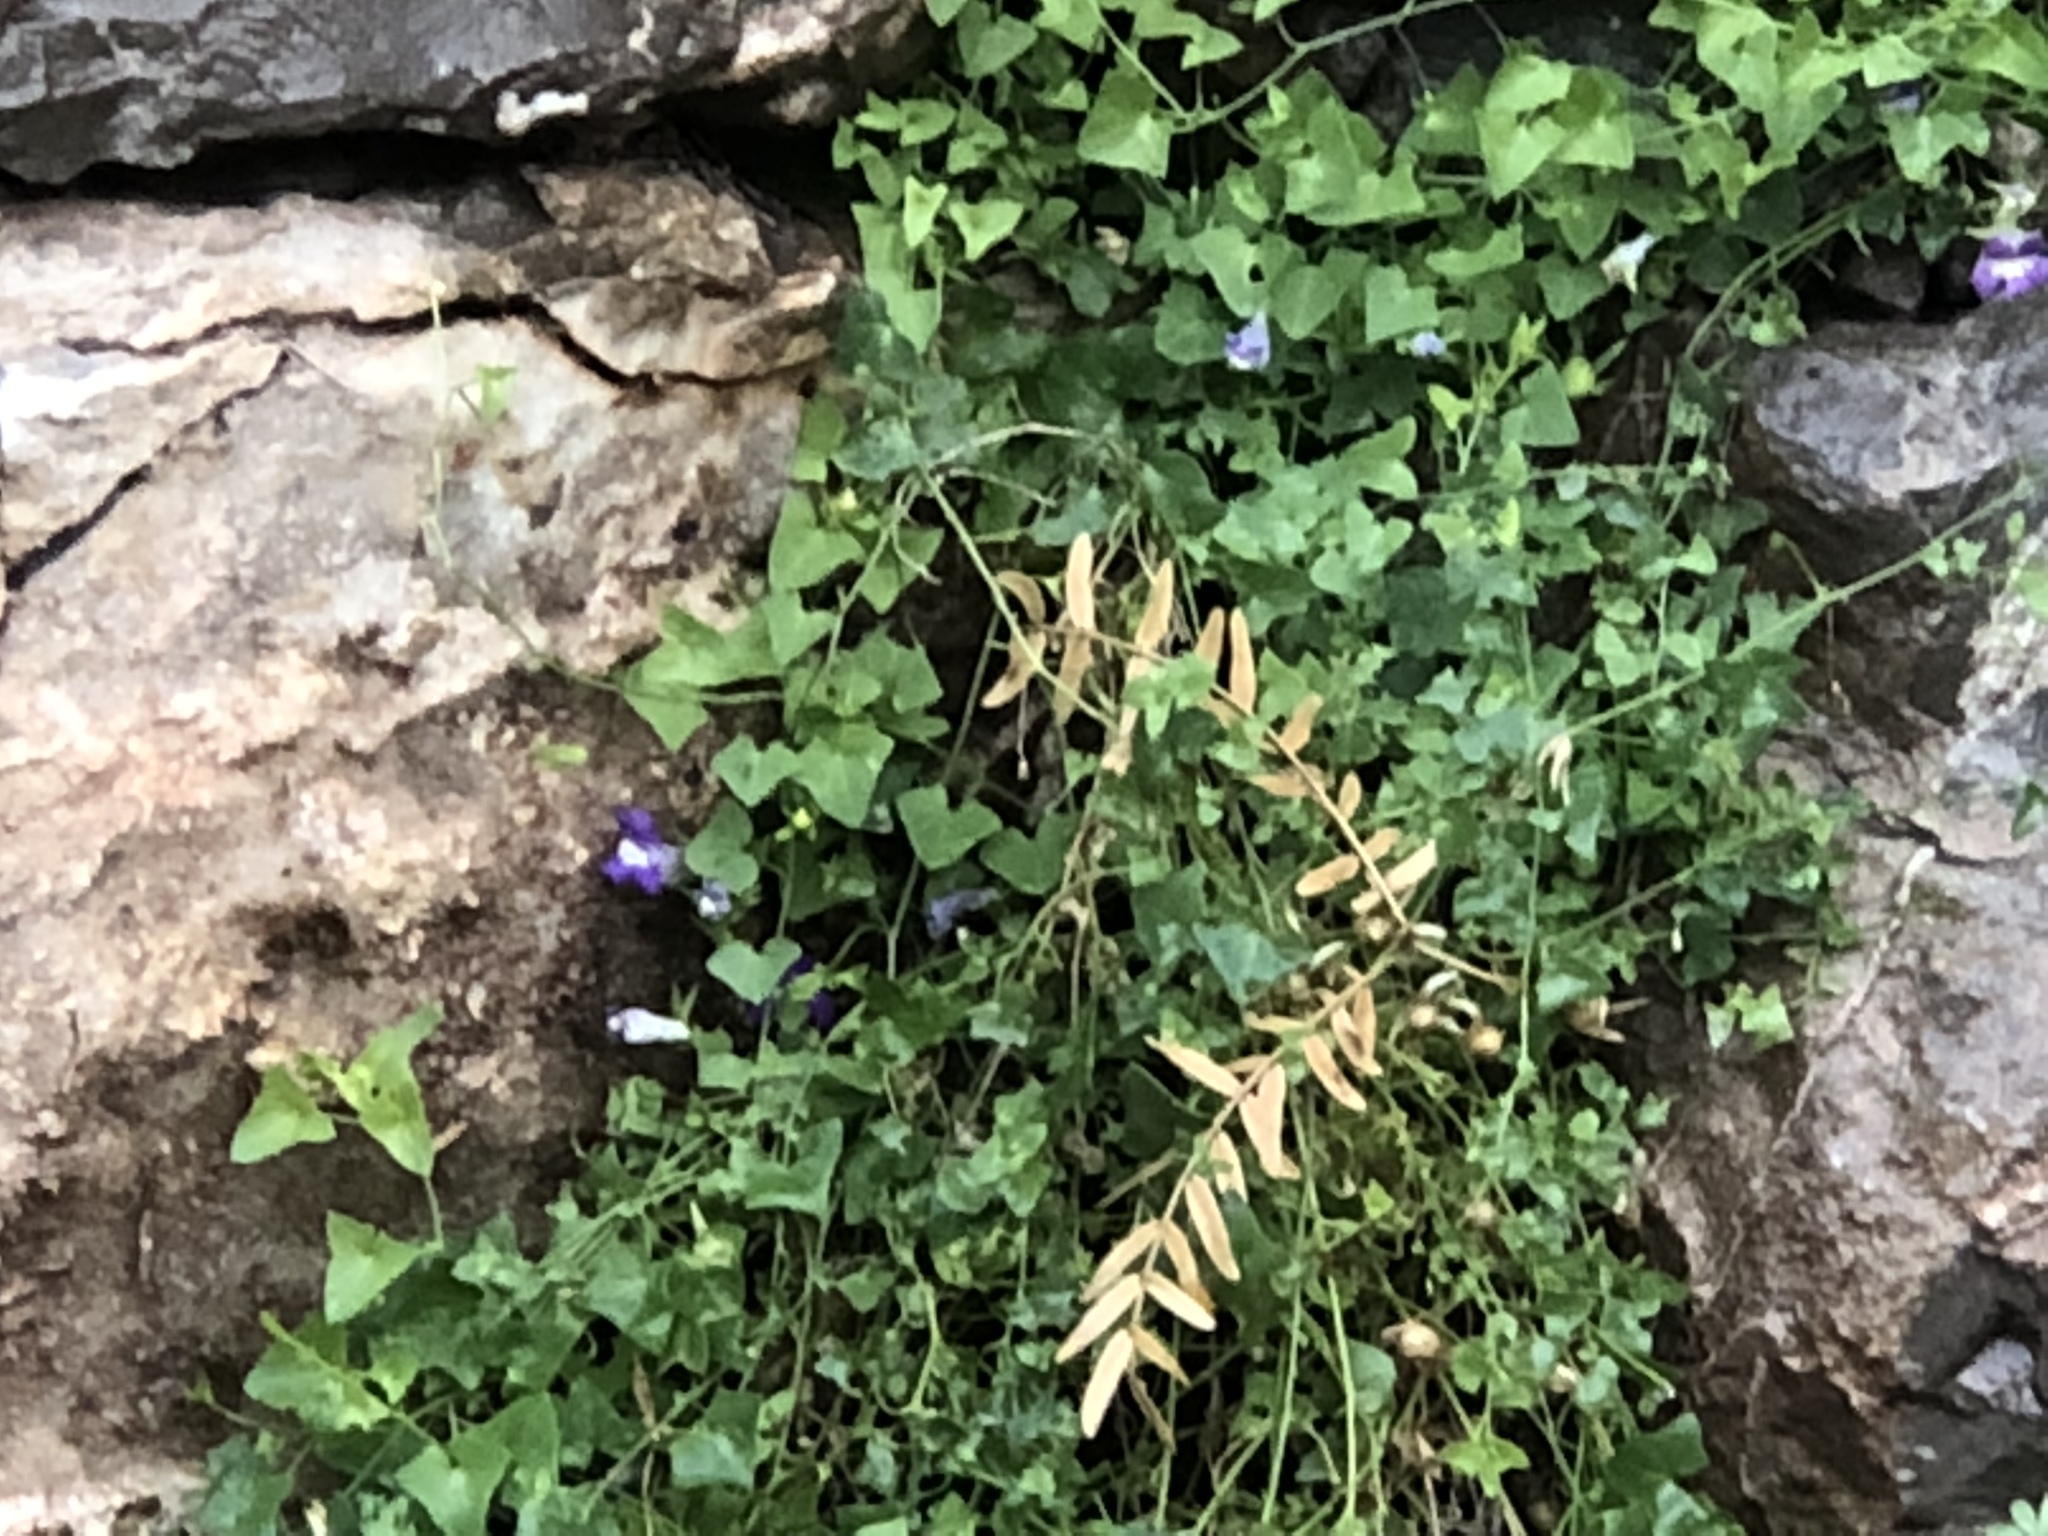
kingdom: Plantae
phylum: Tracheophyta
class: Magnoliopsida
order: Lamiales
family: Plantaginaceae
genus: Maurandella
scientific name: Maurandella antirrhiniflora
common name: Violet twining-snapdragon
